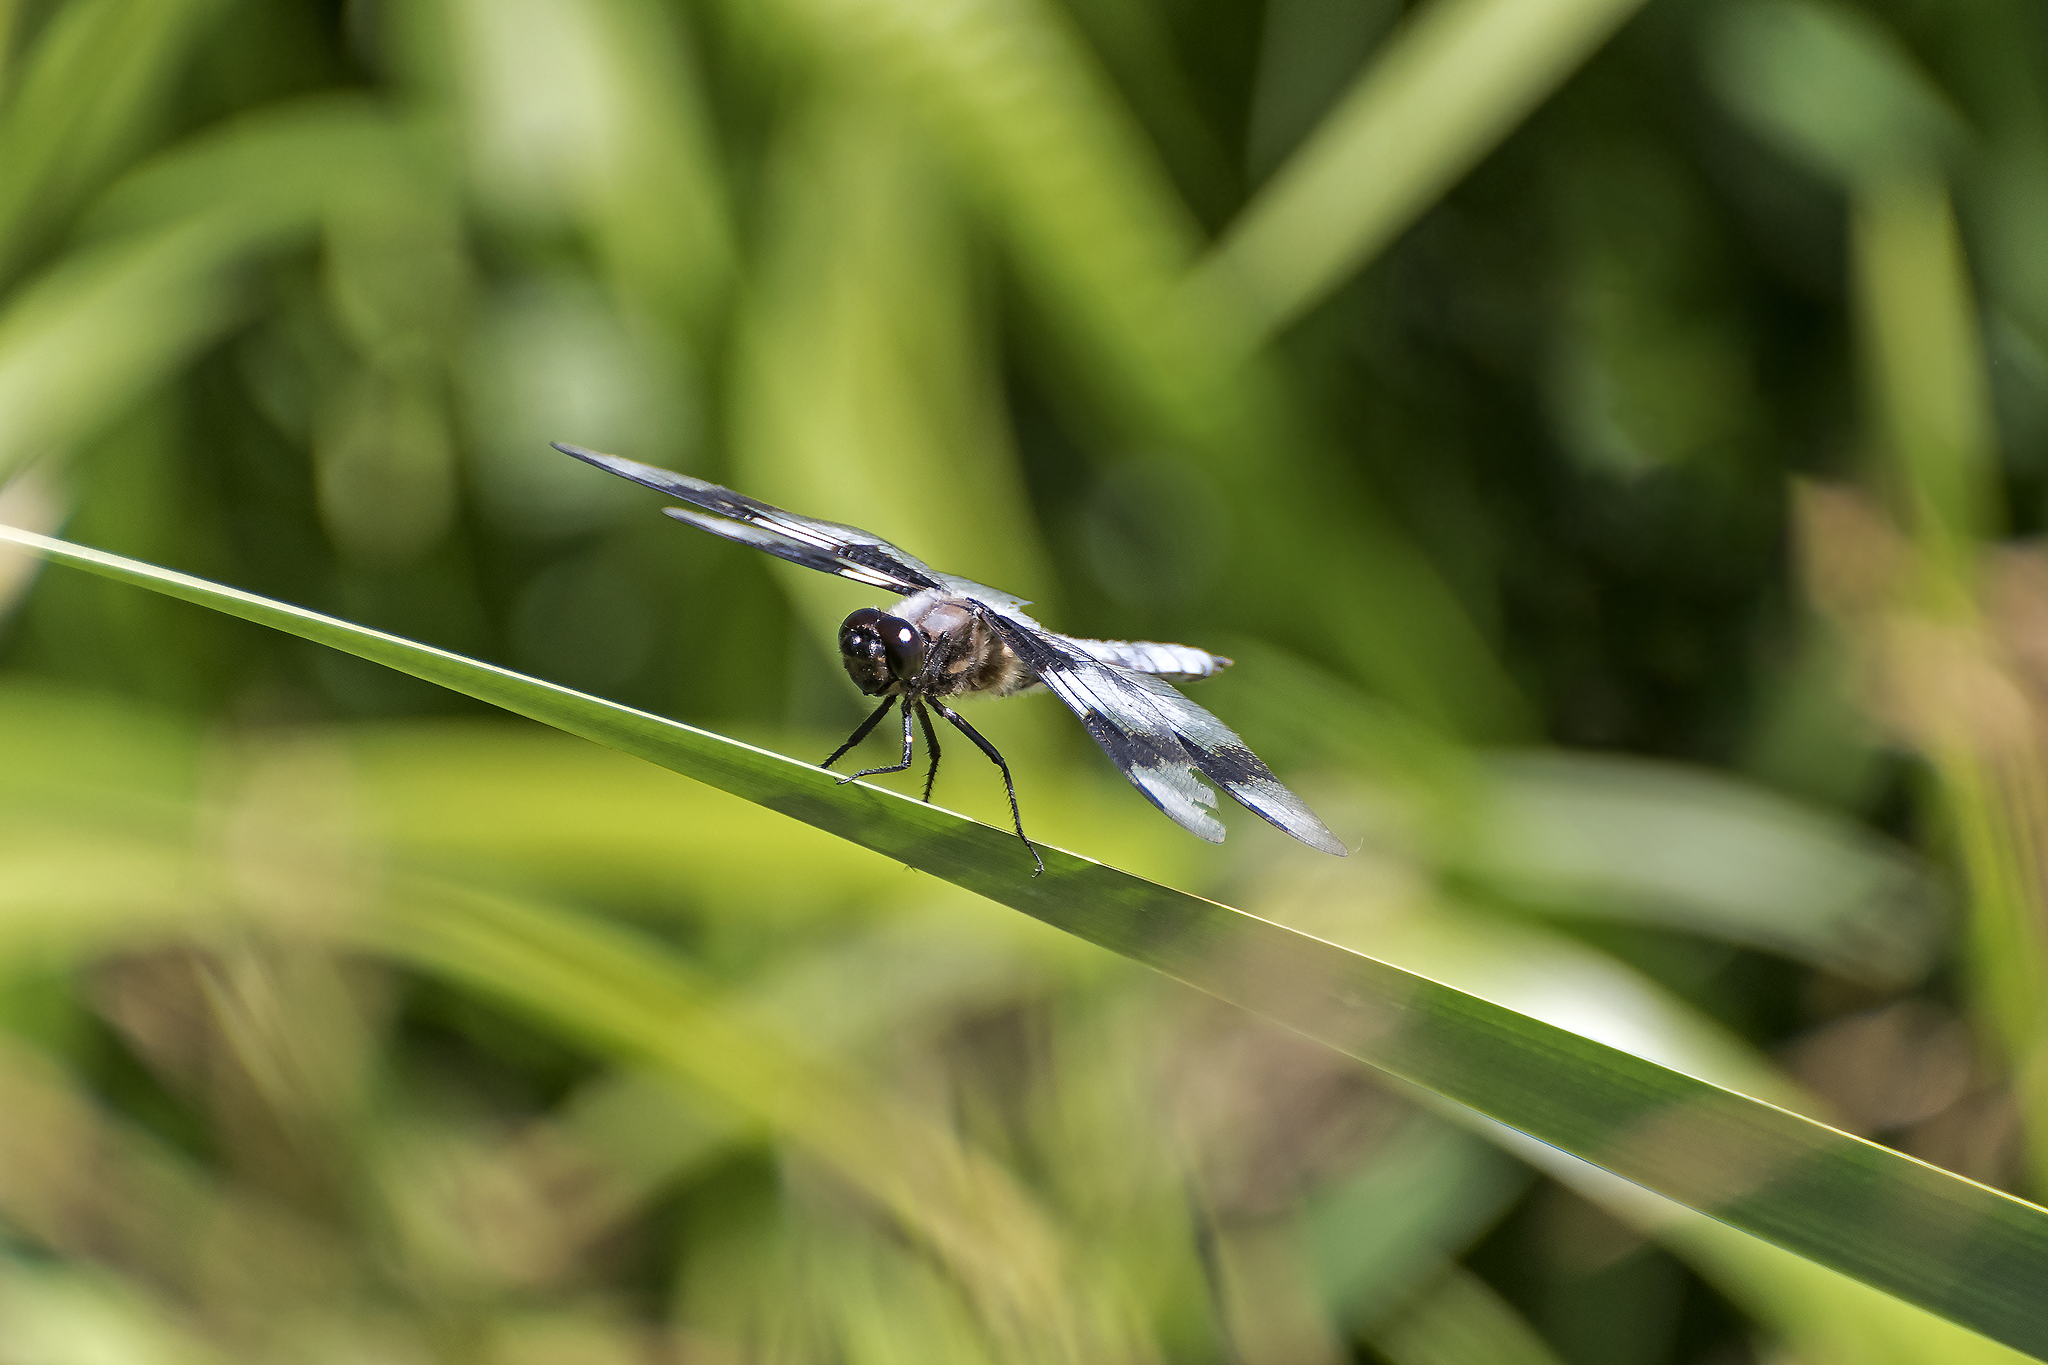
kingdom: Animalia
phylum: Arthropoda
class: Insecta
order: Odonata
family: Libellulidae
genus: Libellula
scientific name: Libellula forensis
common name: Eight-spotted skimmer
